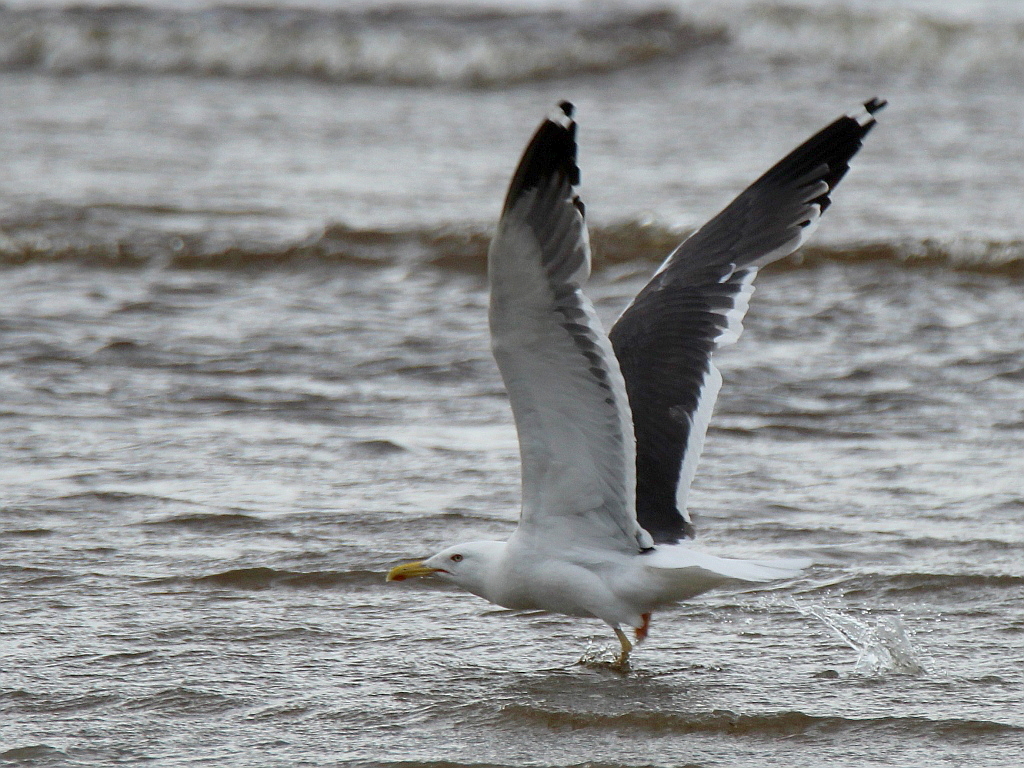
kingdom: Animalia
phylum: Chordata
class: Aves
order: Charadriiformes
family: Laridae
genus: Larus
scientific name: Larus fuscus
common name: Lesser black-backed gull
